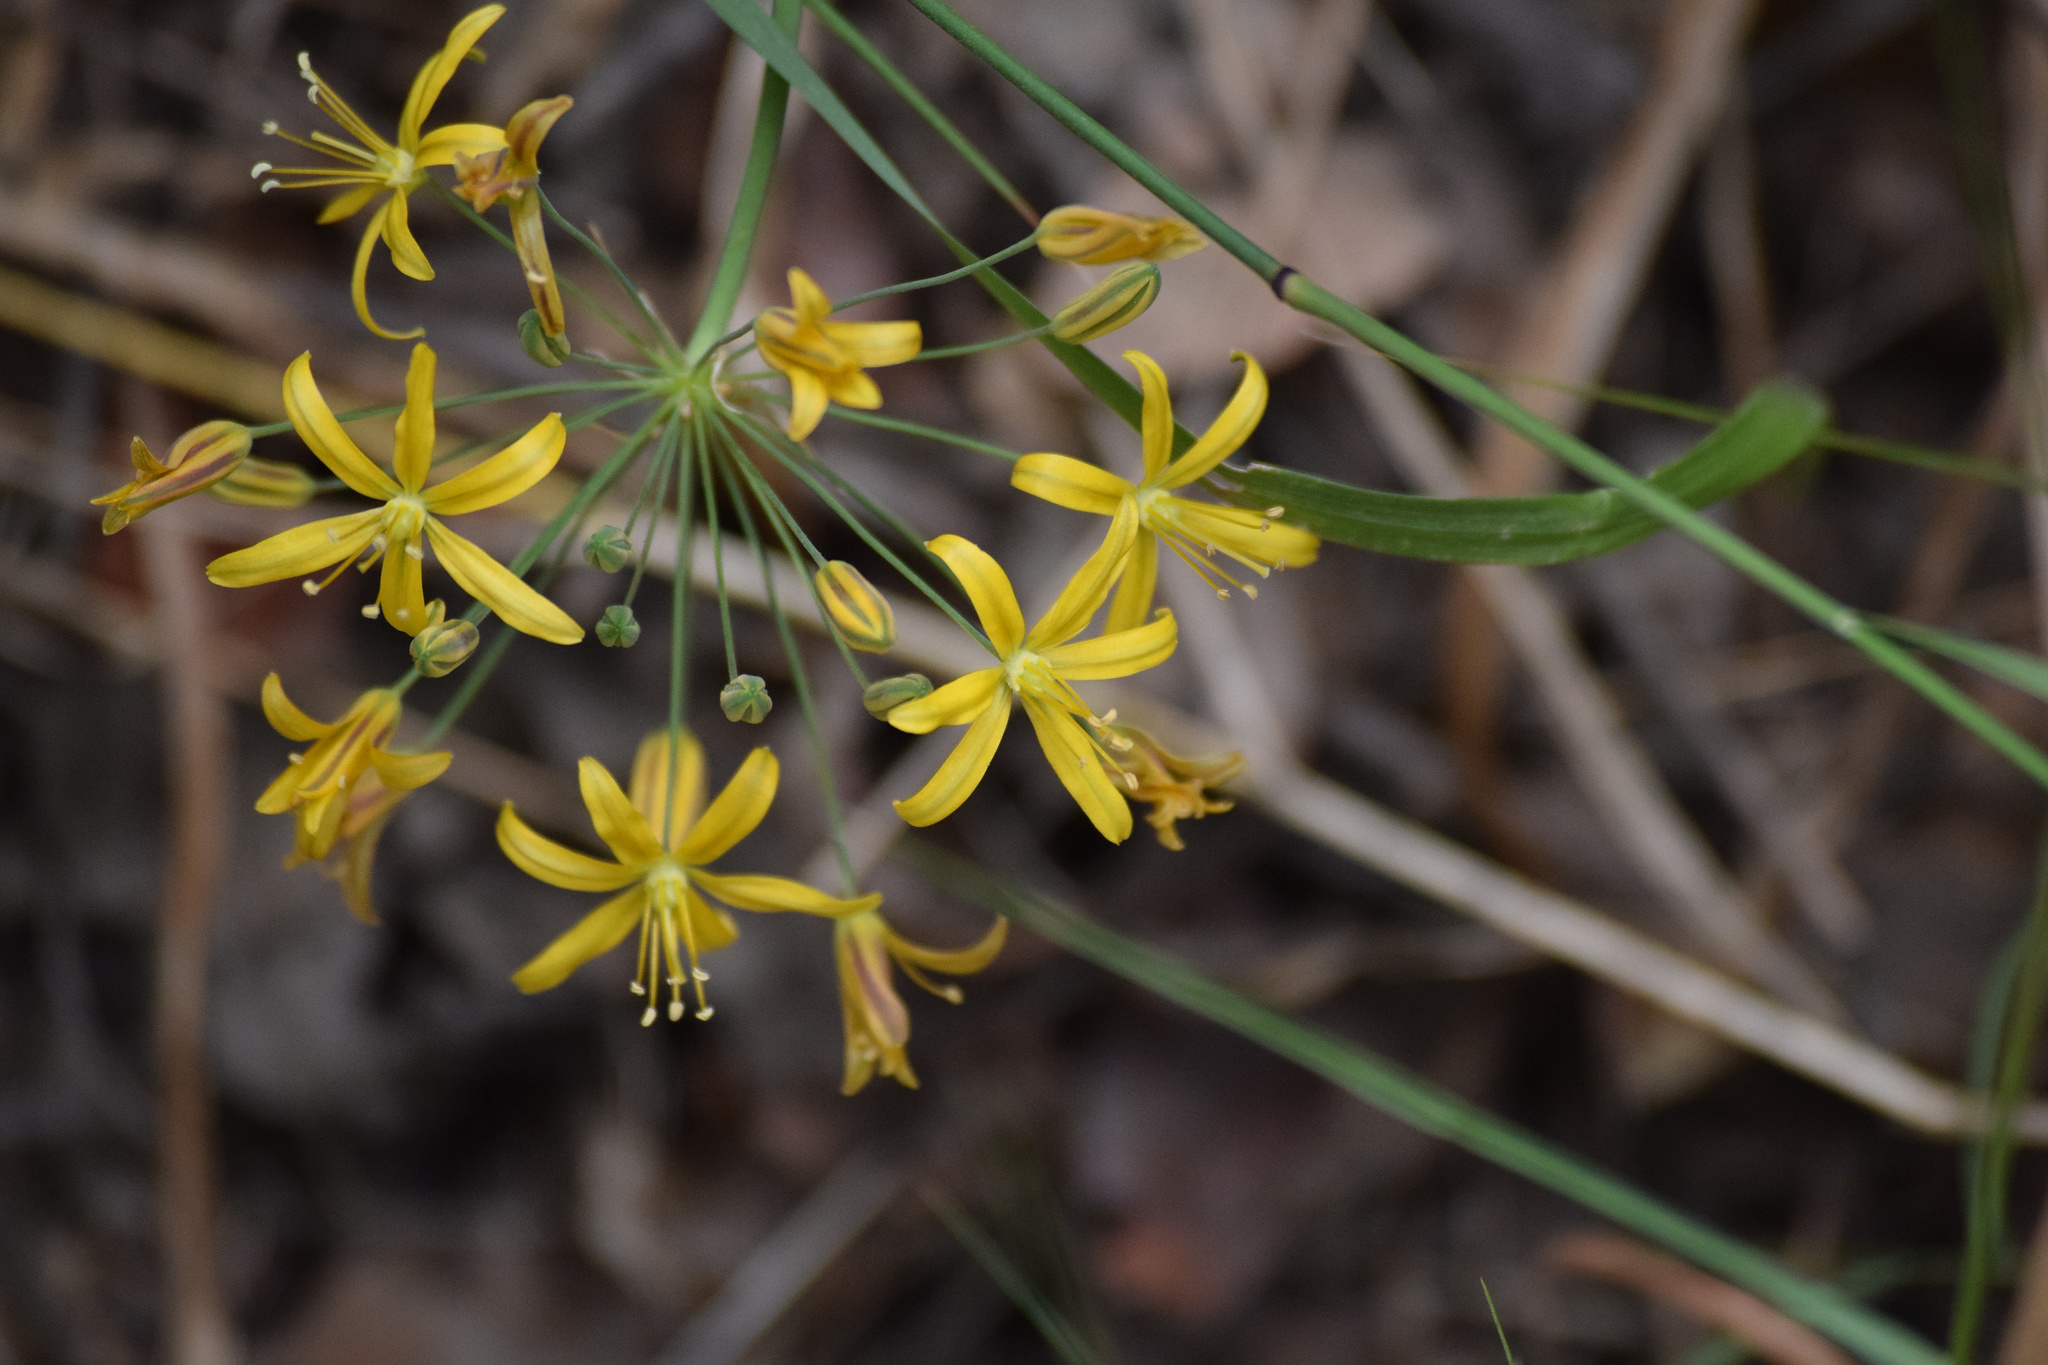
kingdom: Plantae
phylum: Tracheophyta
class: Liliopsida
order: Asparagales
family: Asparagaceae
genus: Bloomeria
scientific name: Bloomeria crocea
